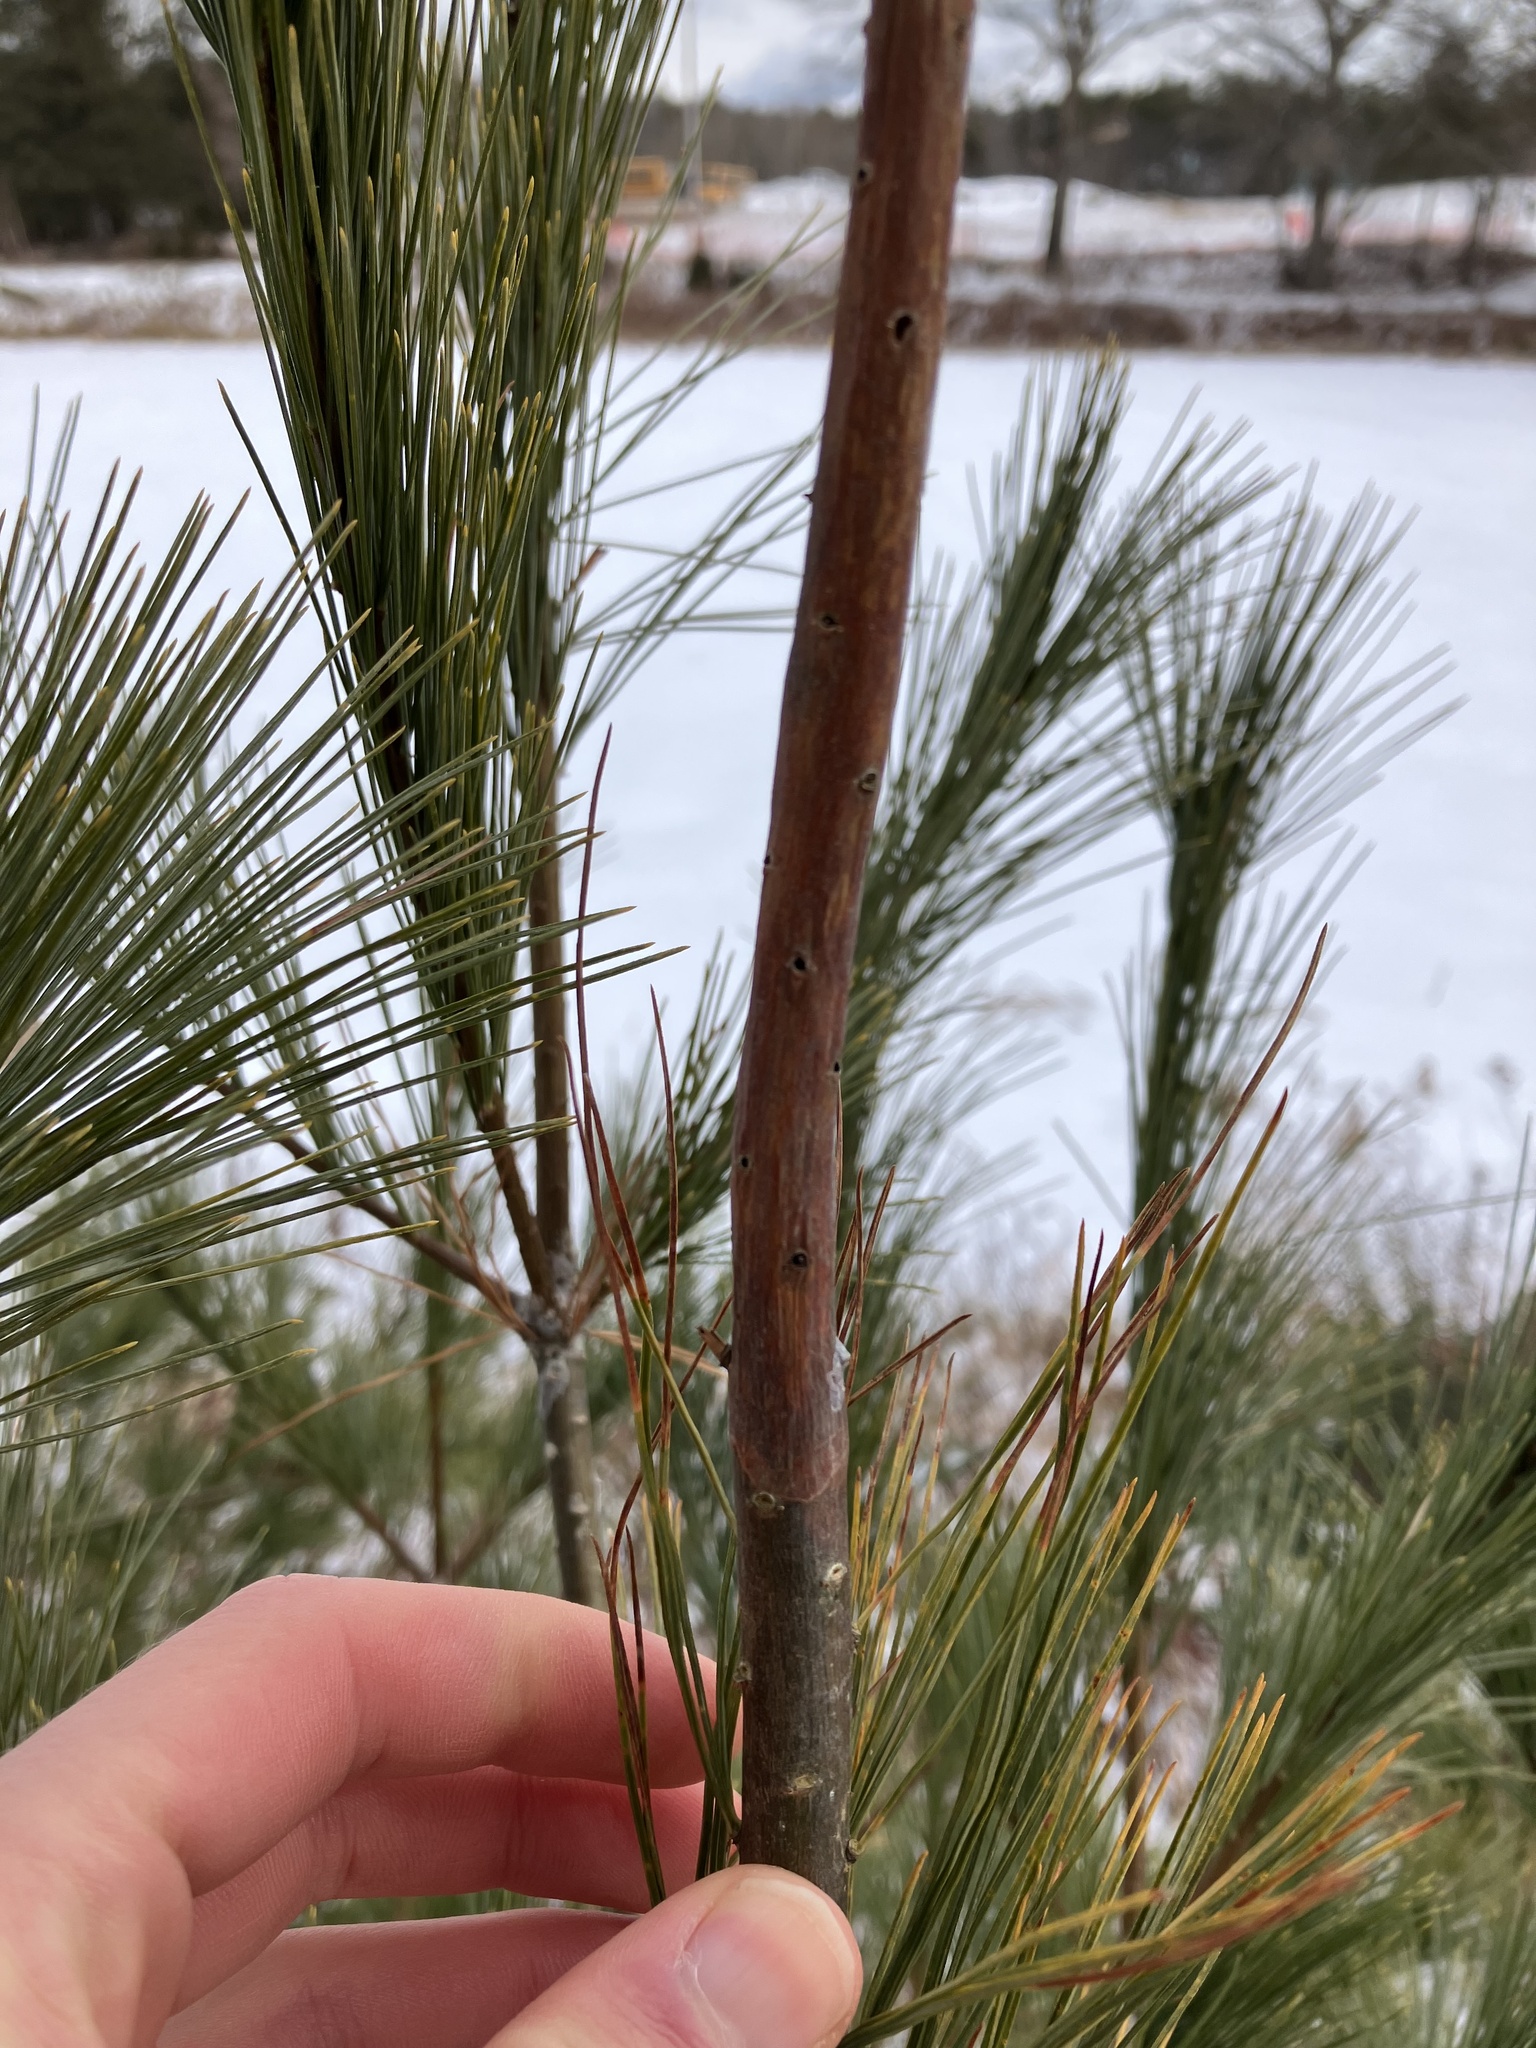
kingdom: Animalia
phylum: Arthropoda
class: Insecta
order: Coleoptera
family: Curculionidae
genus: Pissodes
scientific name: Pissodes strobi
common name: White pine weevil
